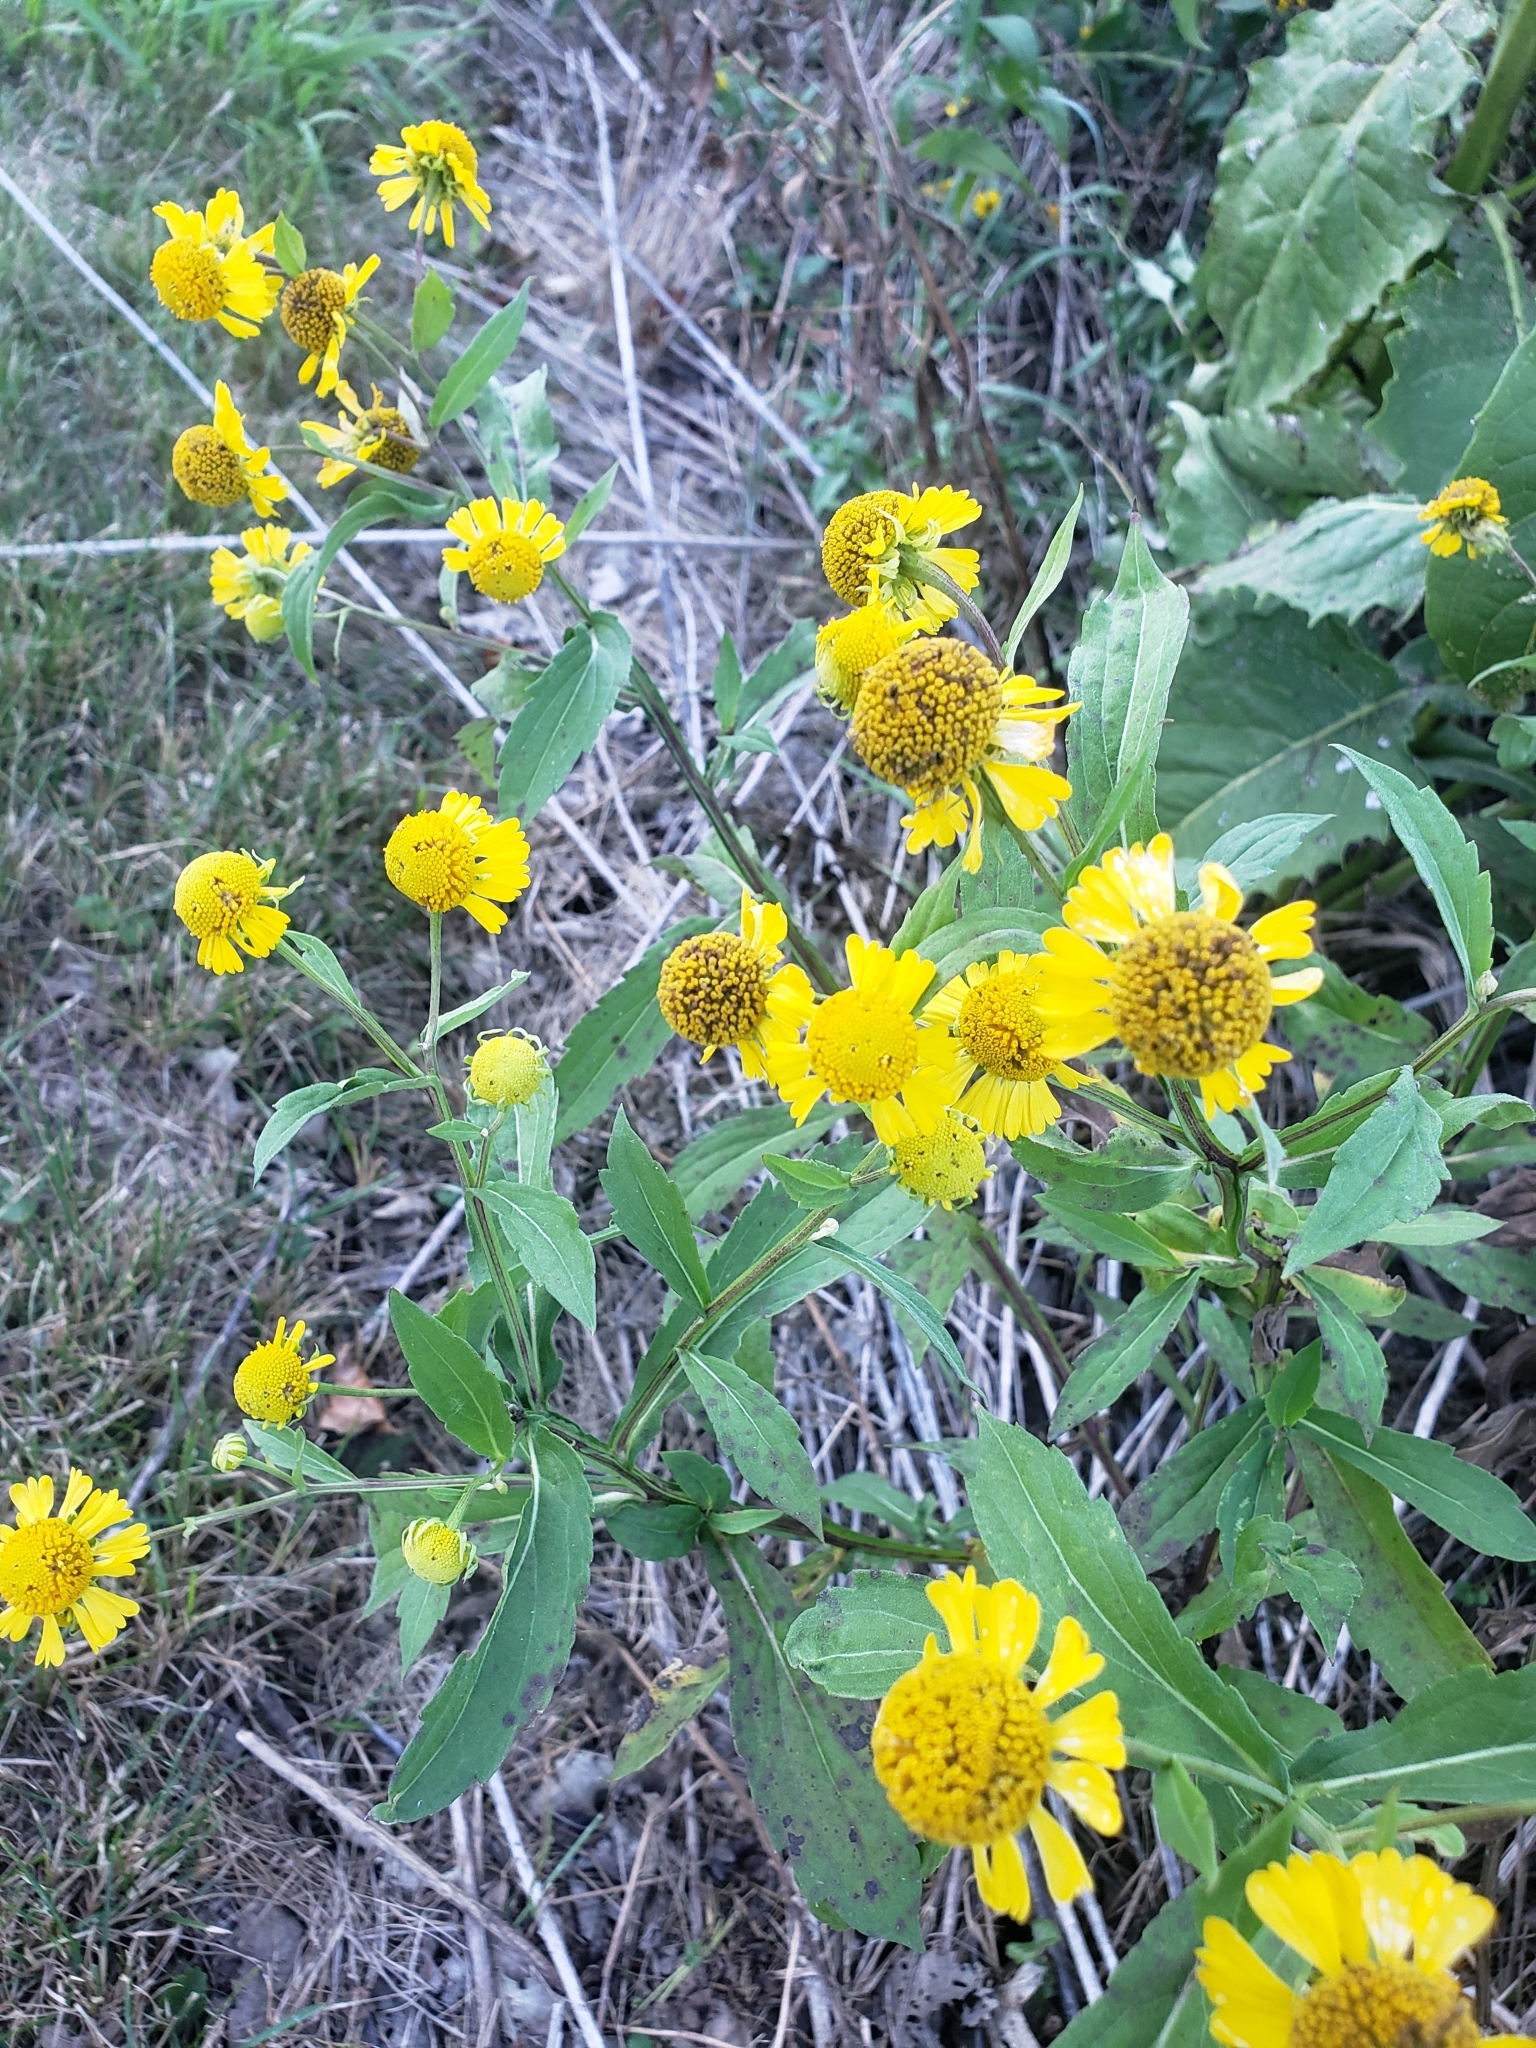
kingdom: Plantae
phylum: Tracheophyta
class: Magnoliopsida
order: Asterales
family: Asteraceae
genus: Helenium
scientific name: Helenium autumnale
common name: Sneezeweed
